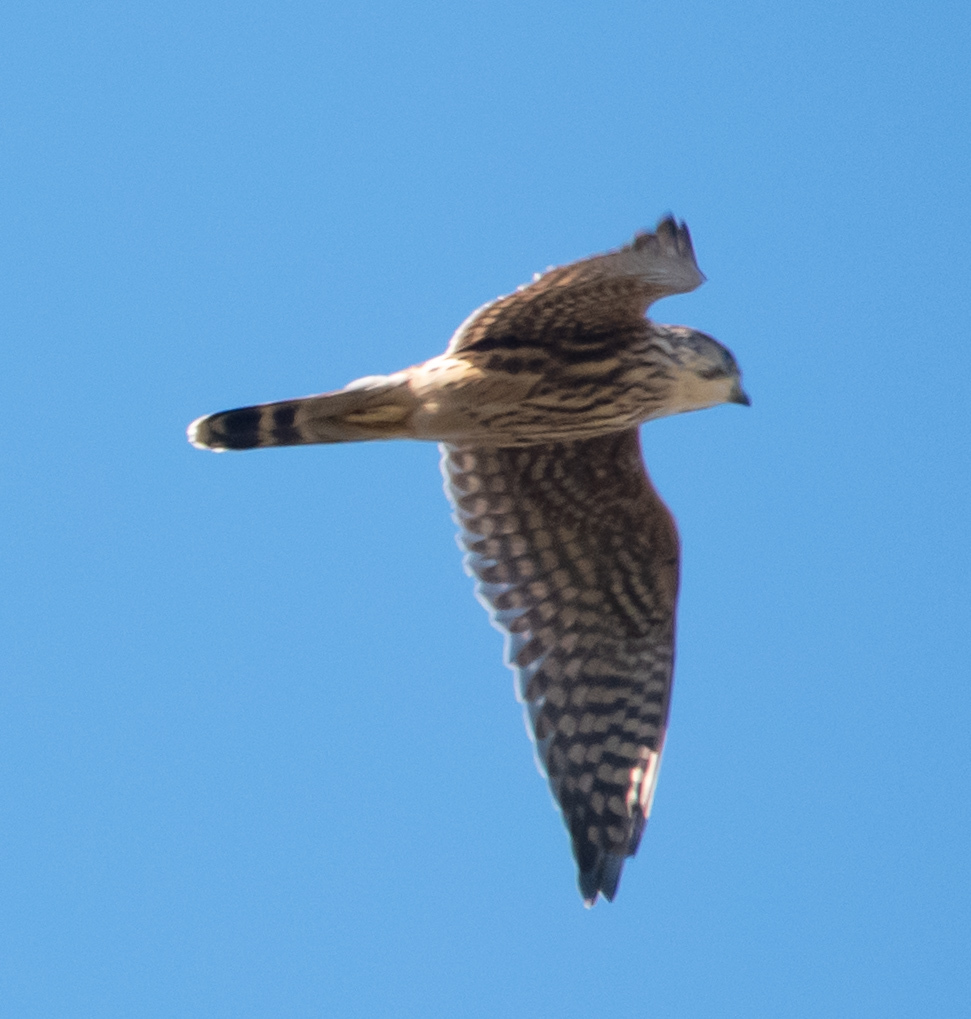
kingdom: Animalia
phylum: Chordata
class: Aves
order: Falconiformes
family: Falconidae
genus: Falco
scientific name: Falco columbarius
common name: Merlin
